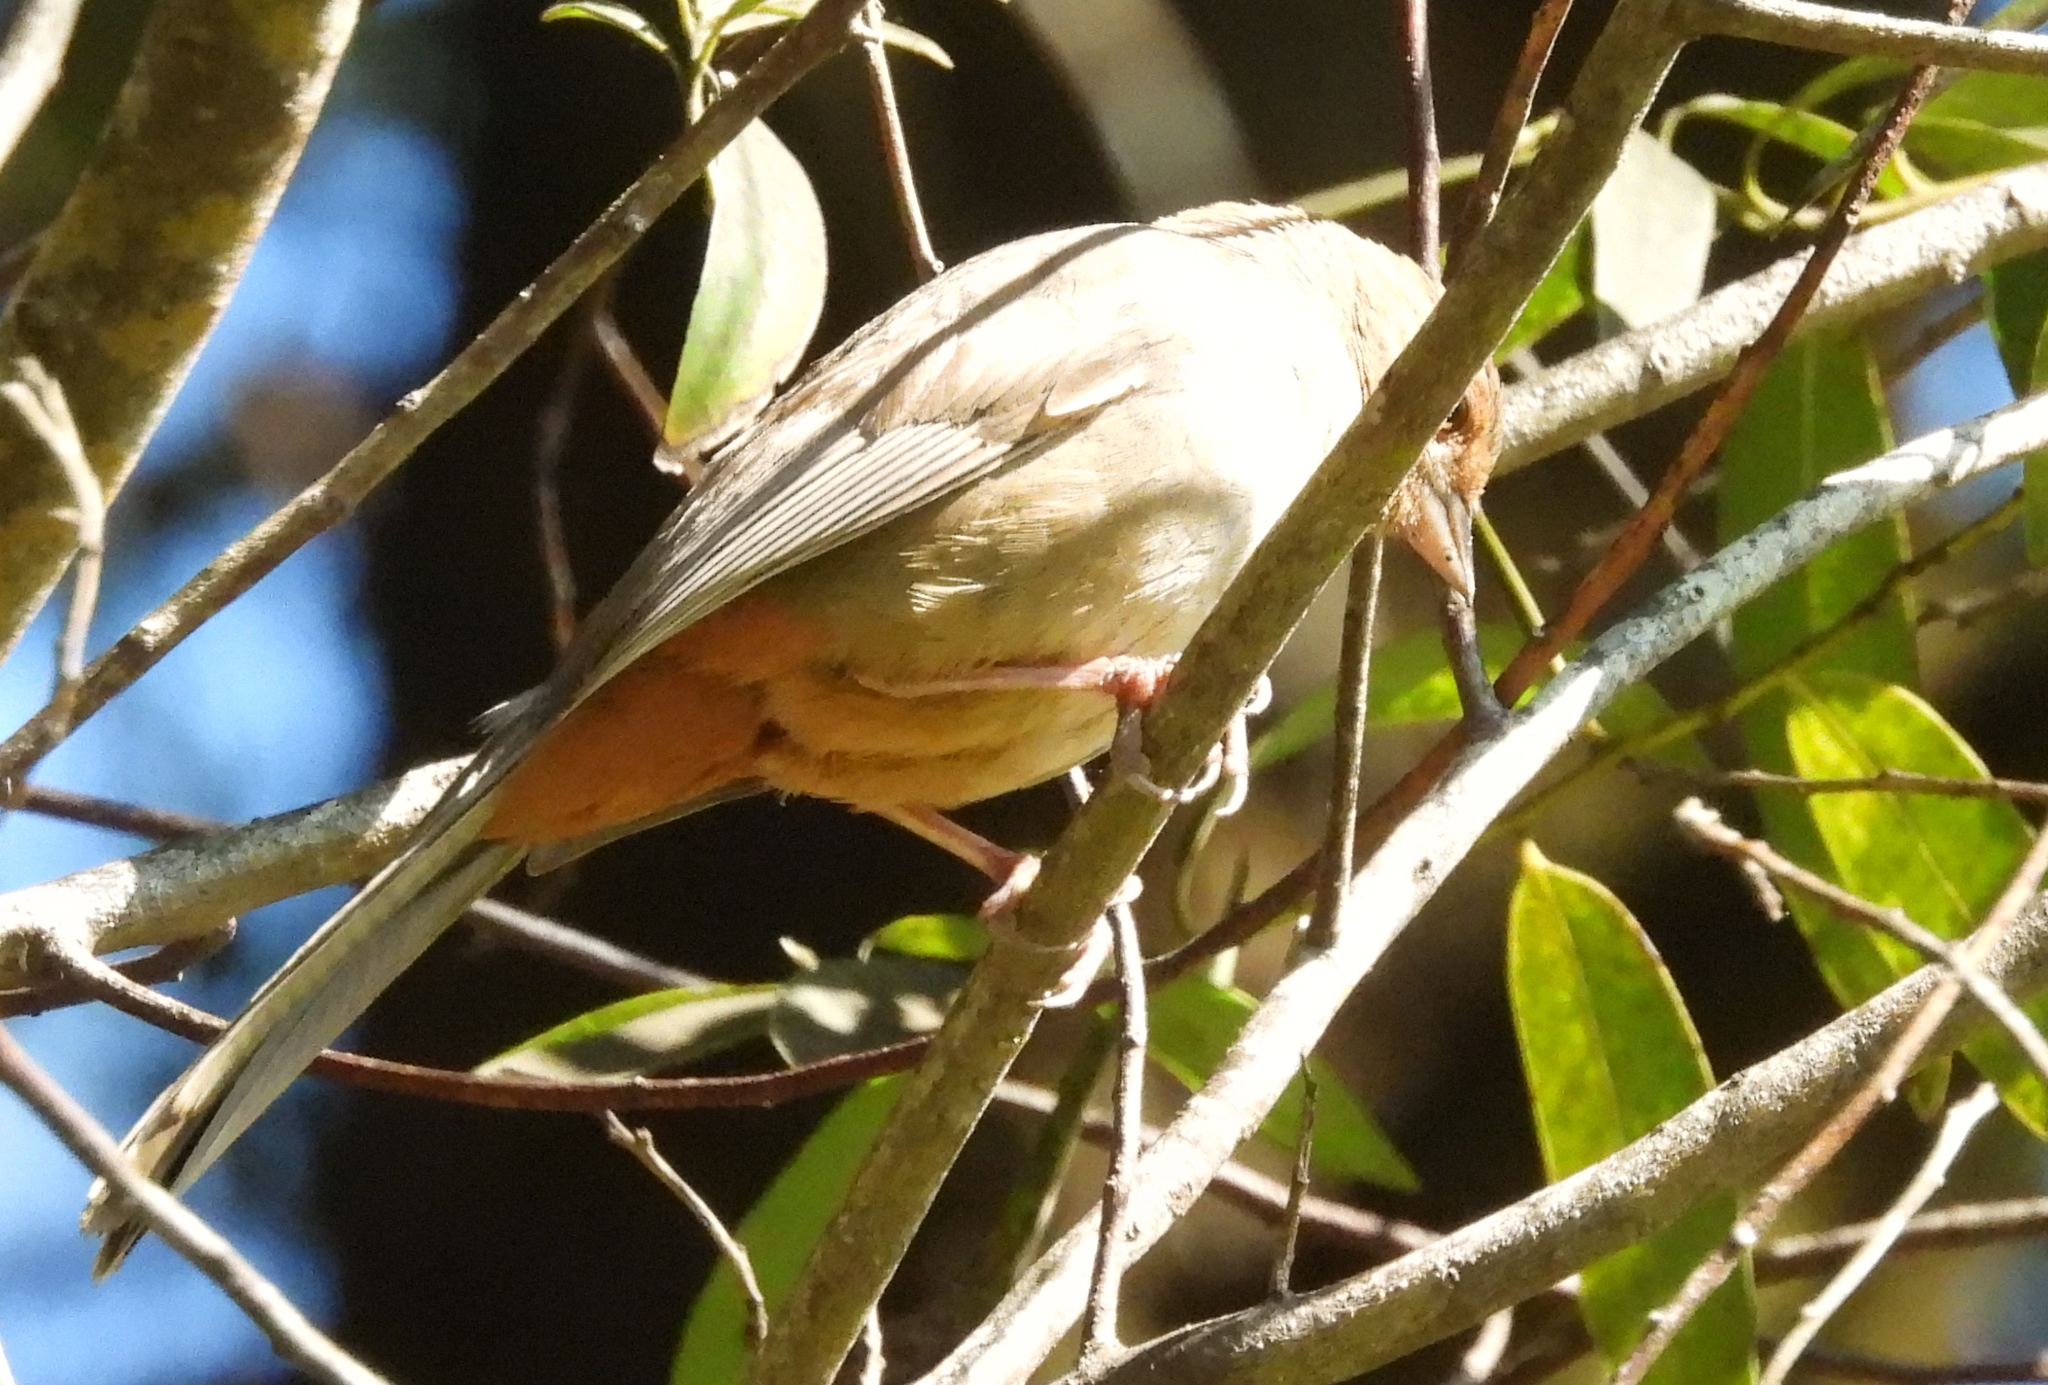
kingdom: Animalia
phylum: Chordata
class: Aves
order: Passeriformes
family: Passerellidae
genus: Melozone
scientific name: Melozone crissalis
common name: California towhee
